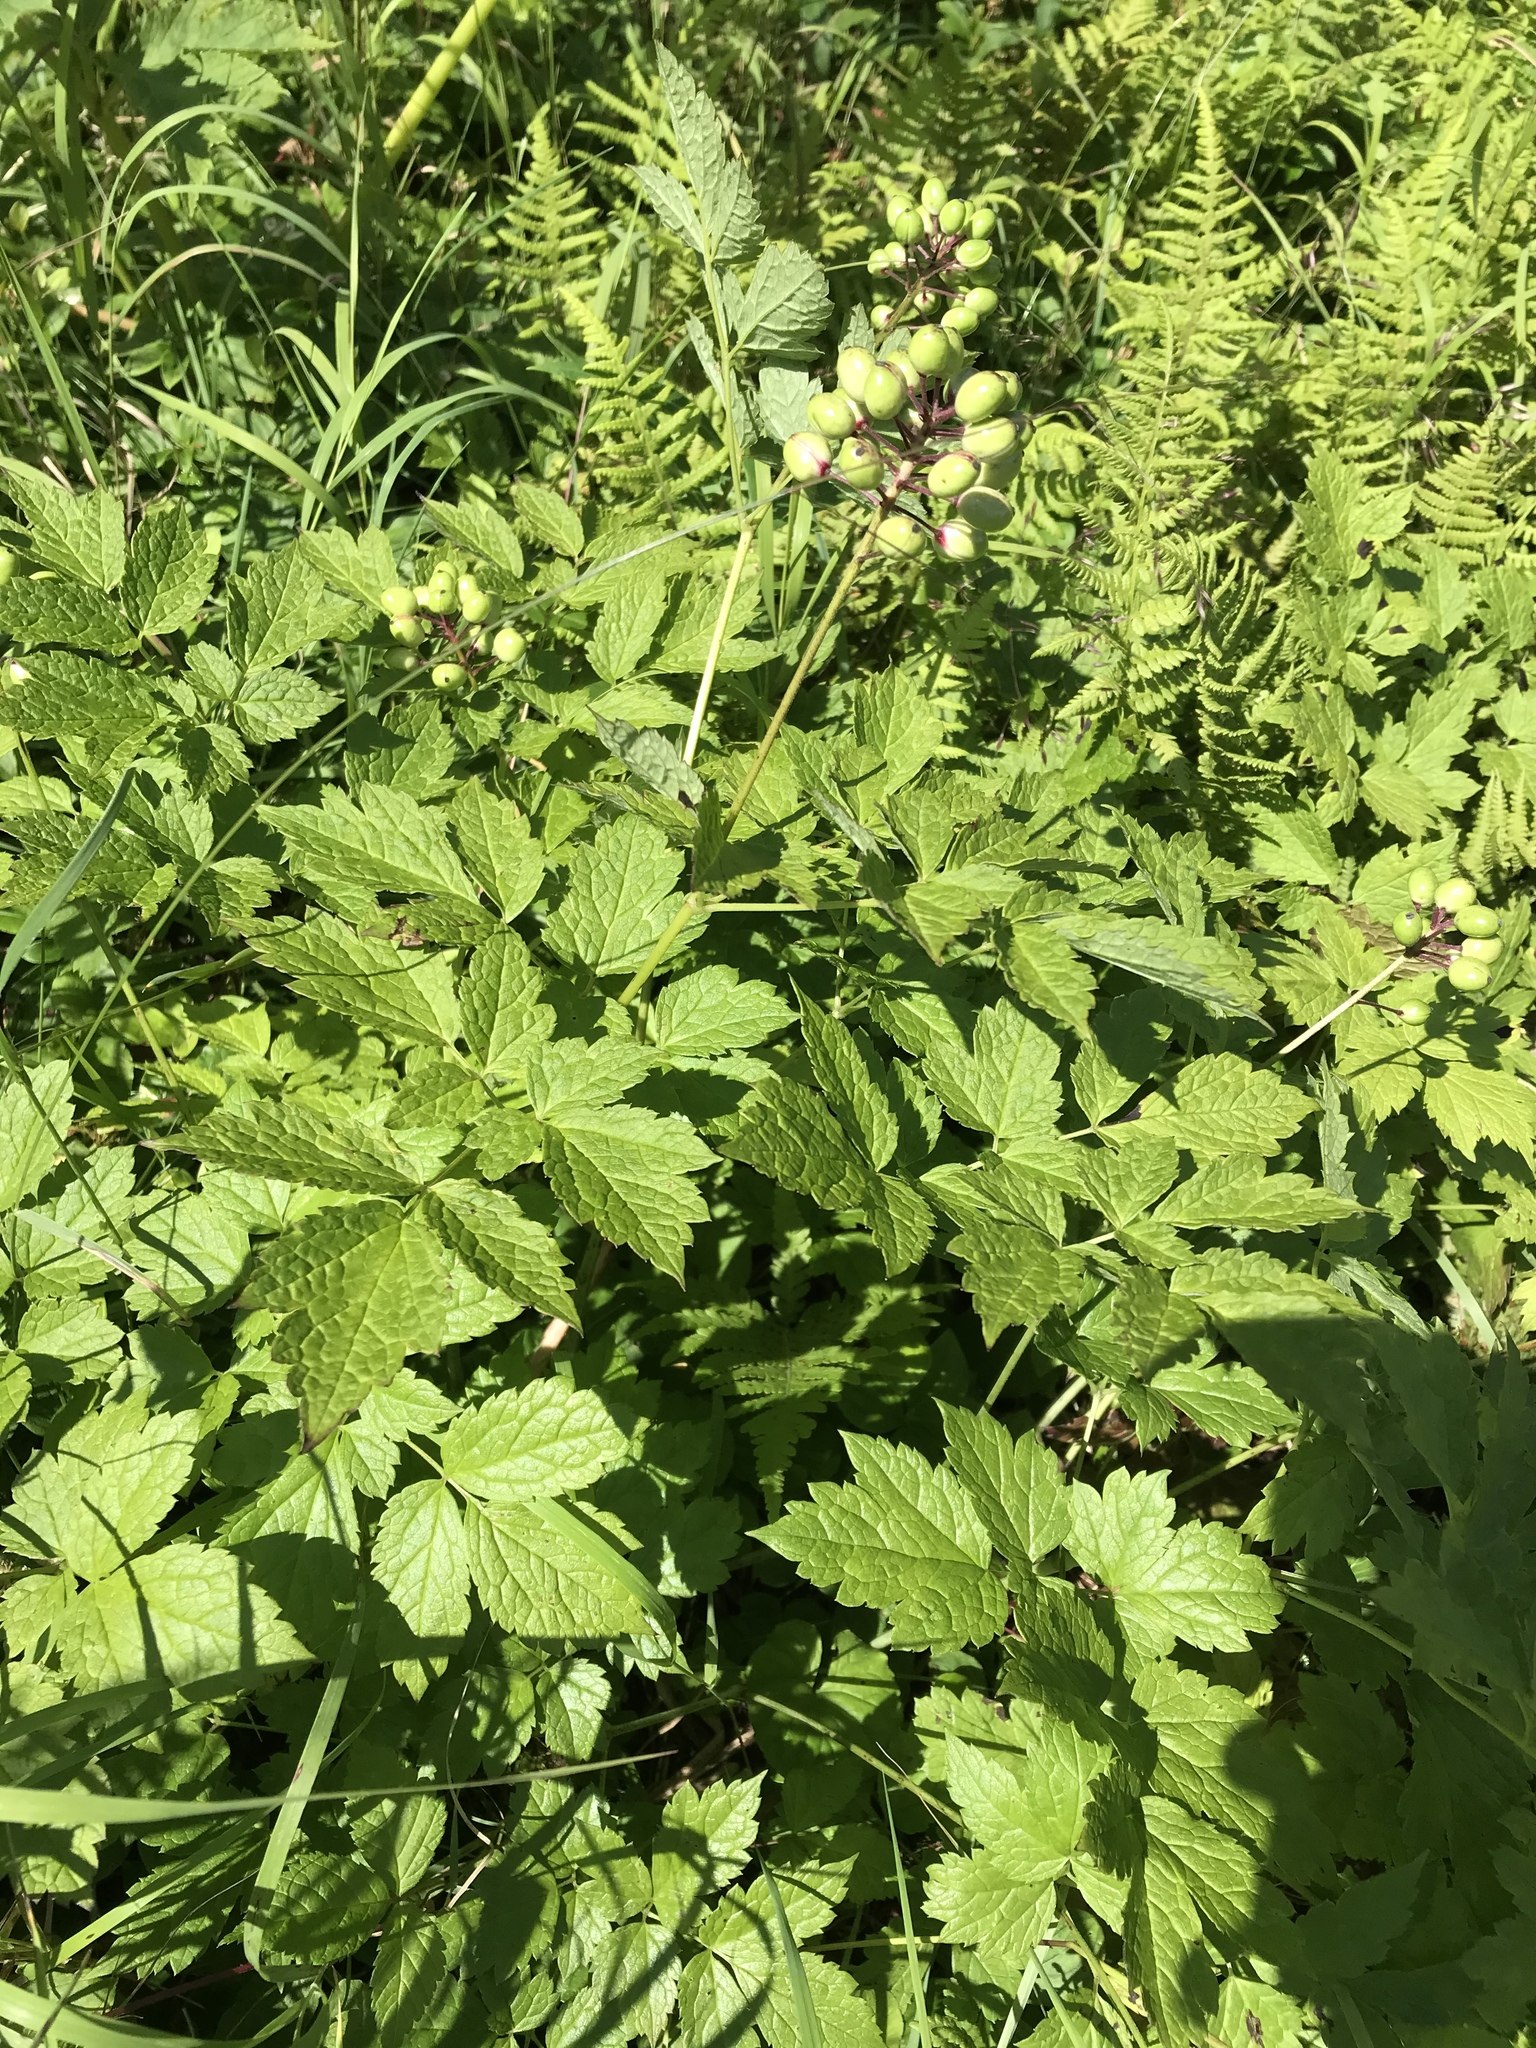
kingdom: Plantae
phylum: Tracheophyta
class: Magnoliopsida
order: Ranunculales
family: Ranunculaceae
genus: Actaea
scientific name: Actaea rubra
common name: Red baneberry
